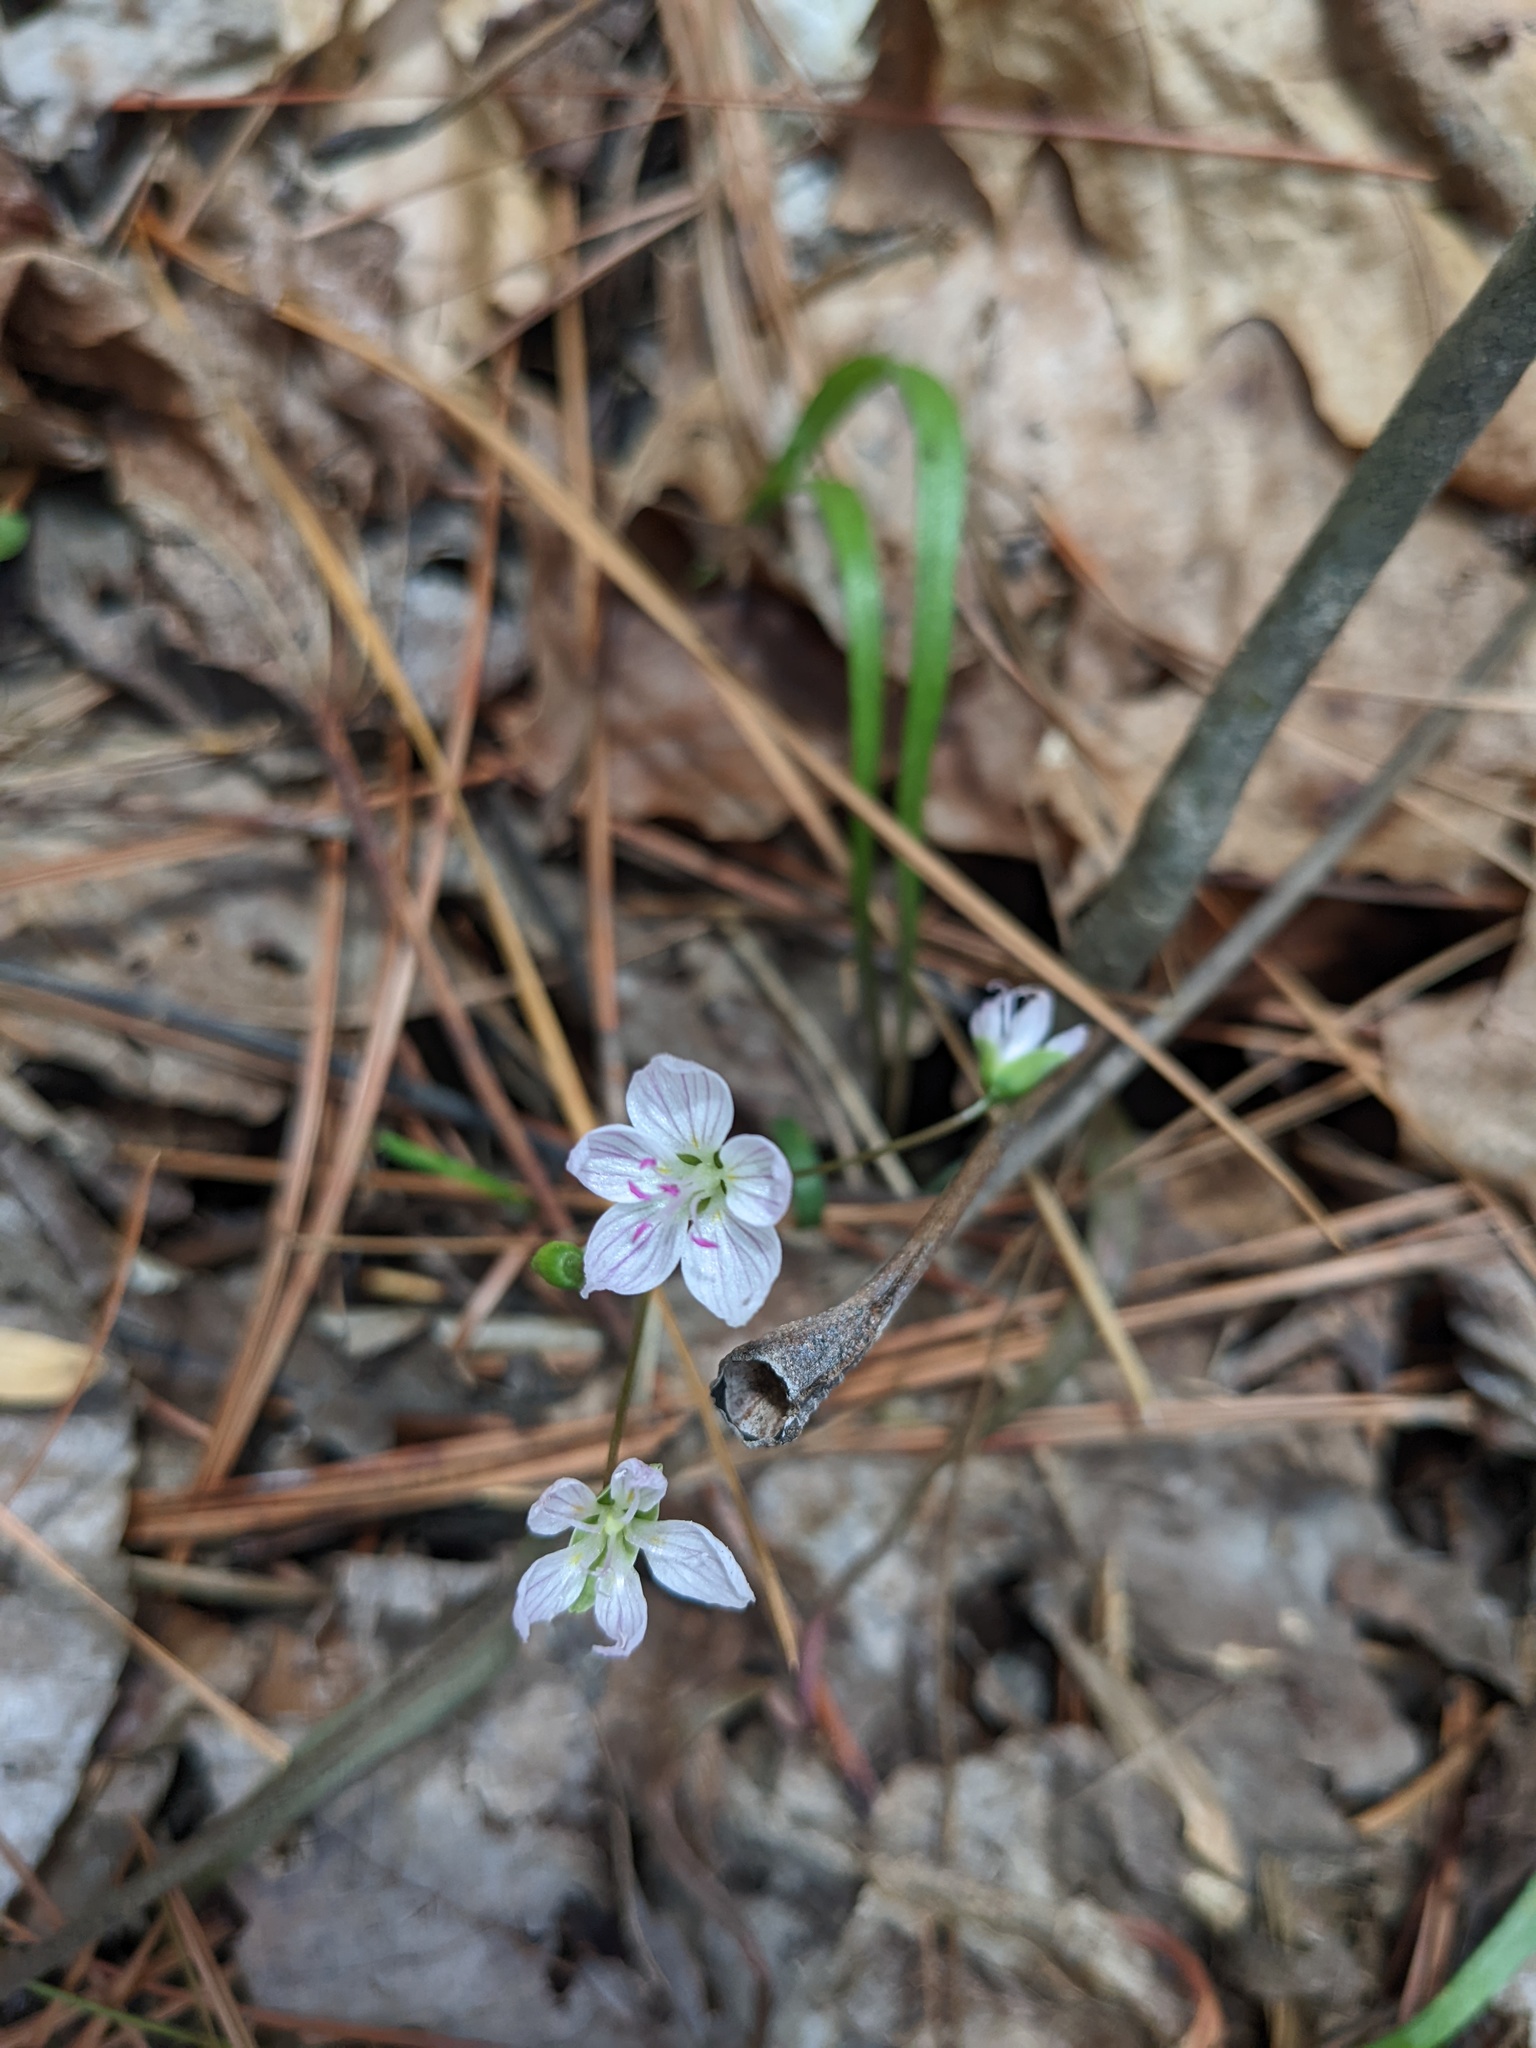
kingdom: Plantae
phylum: Tracheophyta
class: Magnoliopsida
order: Caryophyllales
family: Montiaceae
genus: Claytonia
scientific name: Claytonia virginica
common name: Virginia springbeauty
